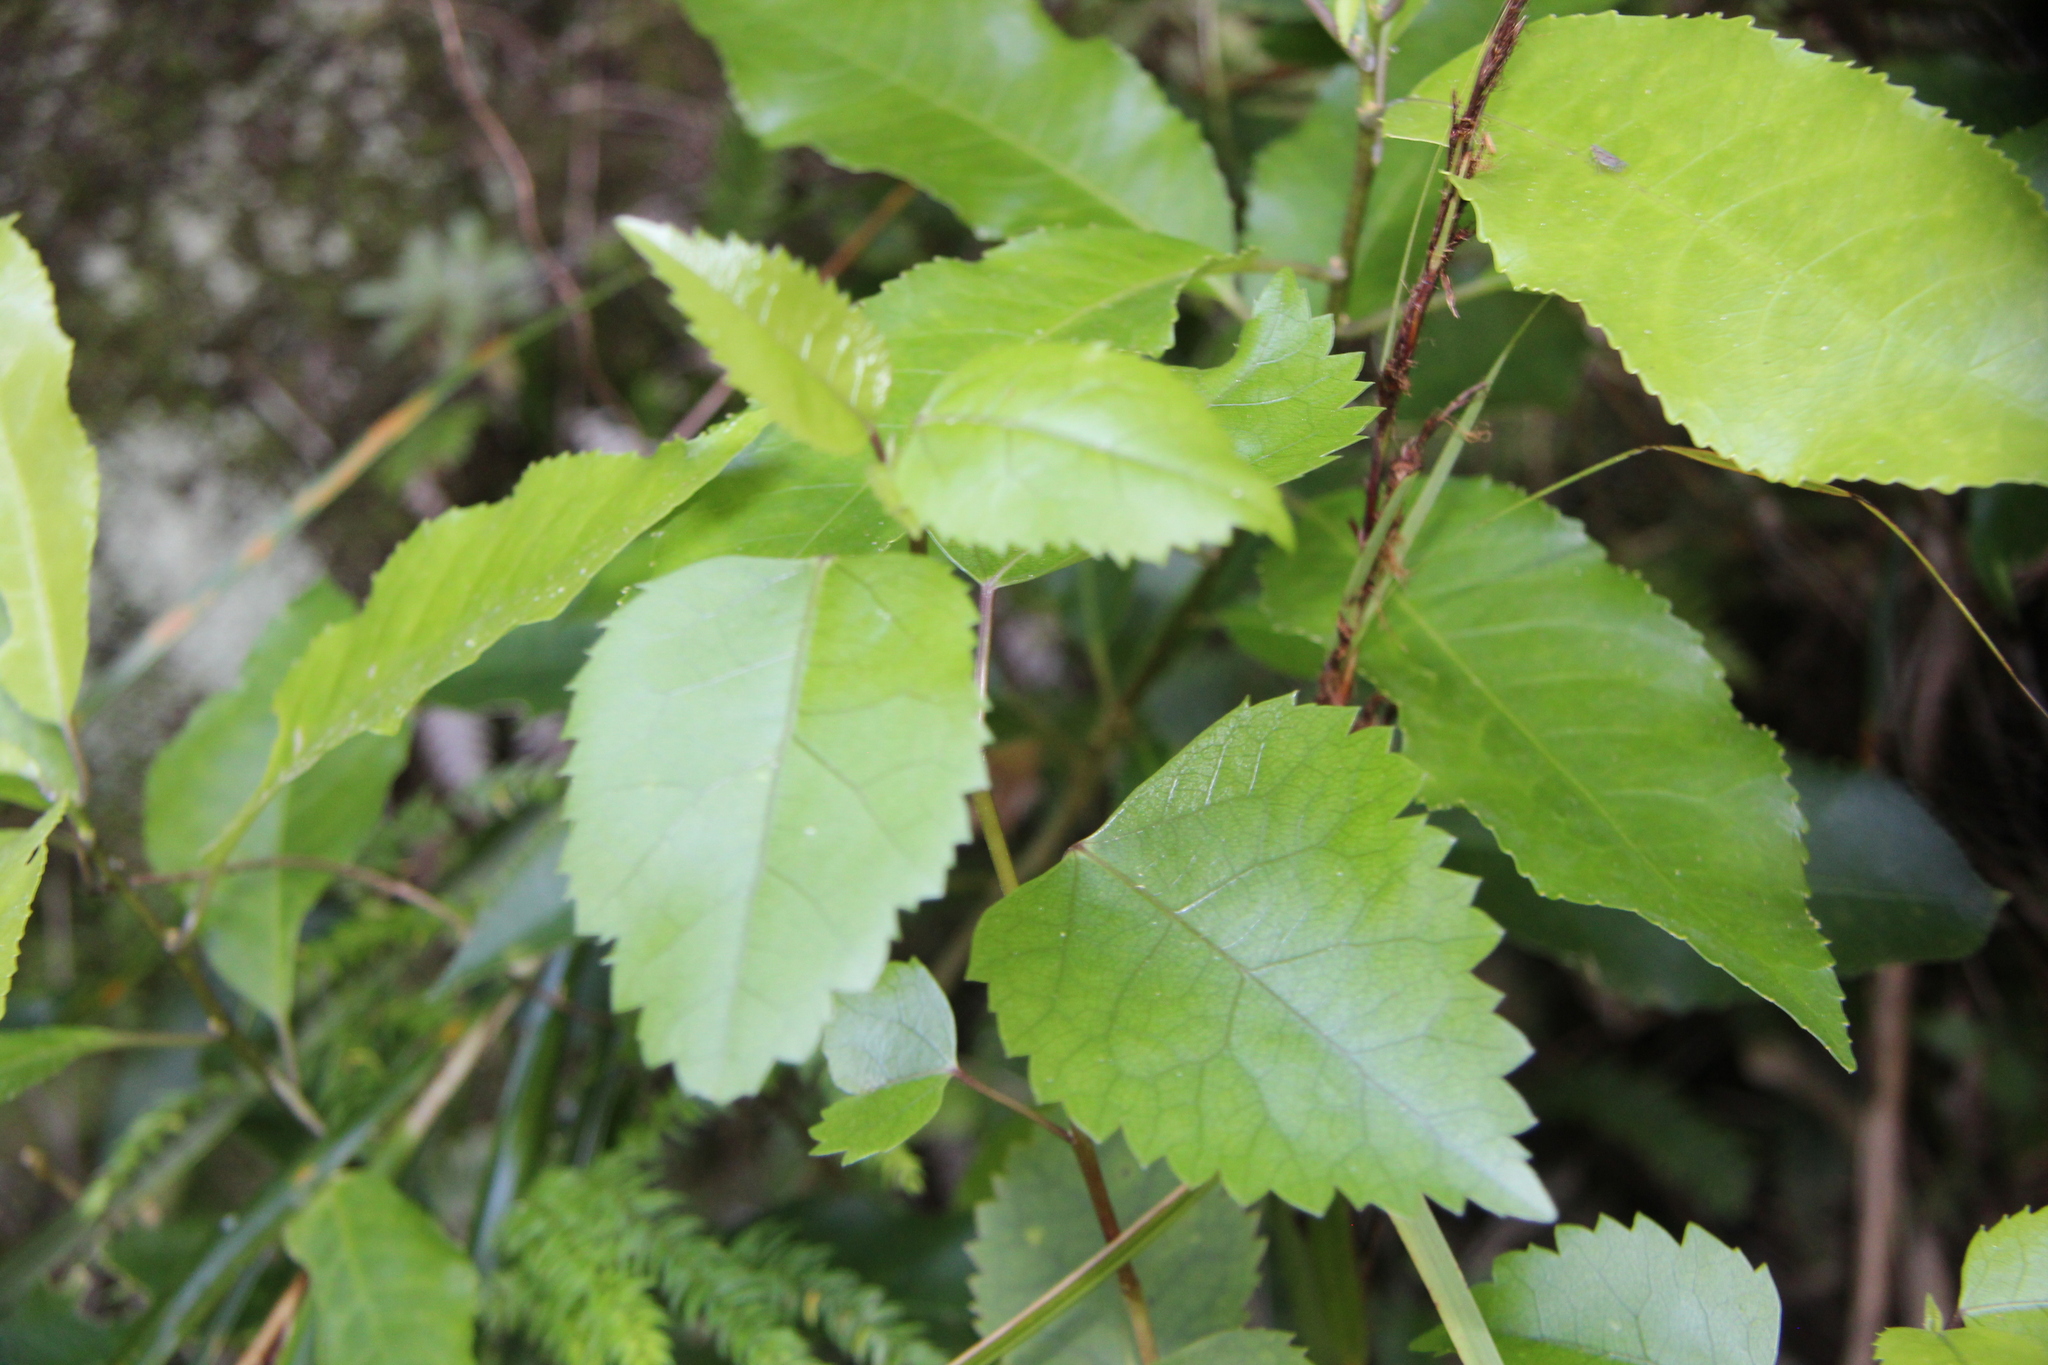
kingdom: Plantae
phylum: Tracheophyta
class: Magnoliopsida
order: Malvales
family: Malvaceae
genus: Hoheria
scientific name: Hoheria populnea
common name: Lacebark
